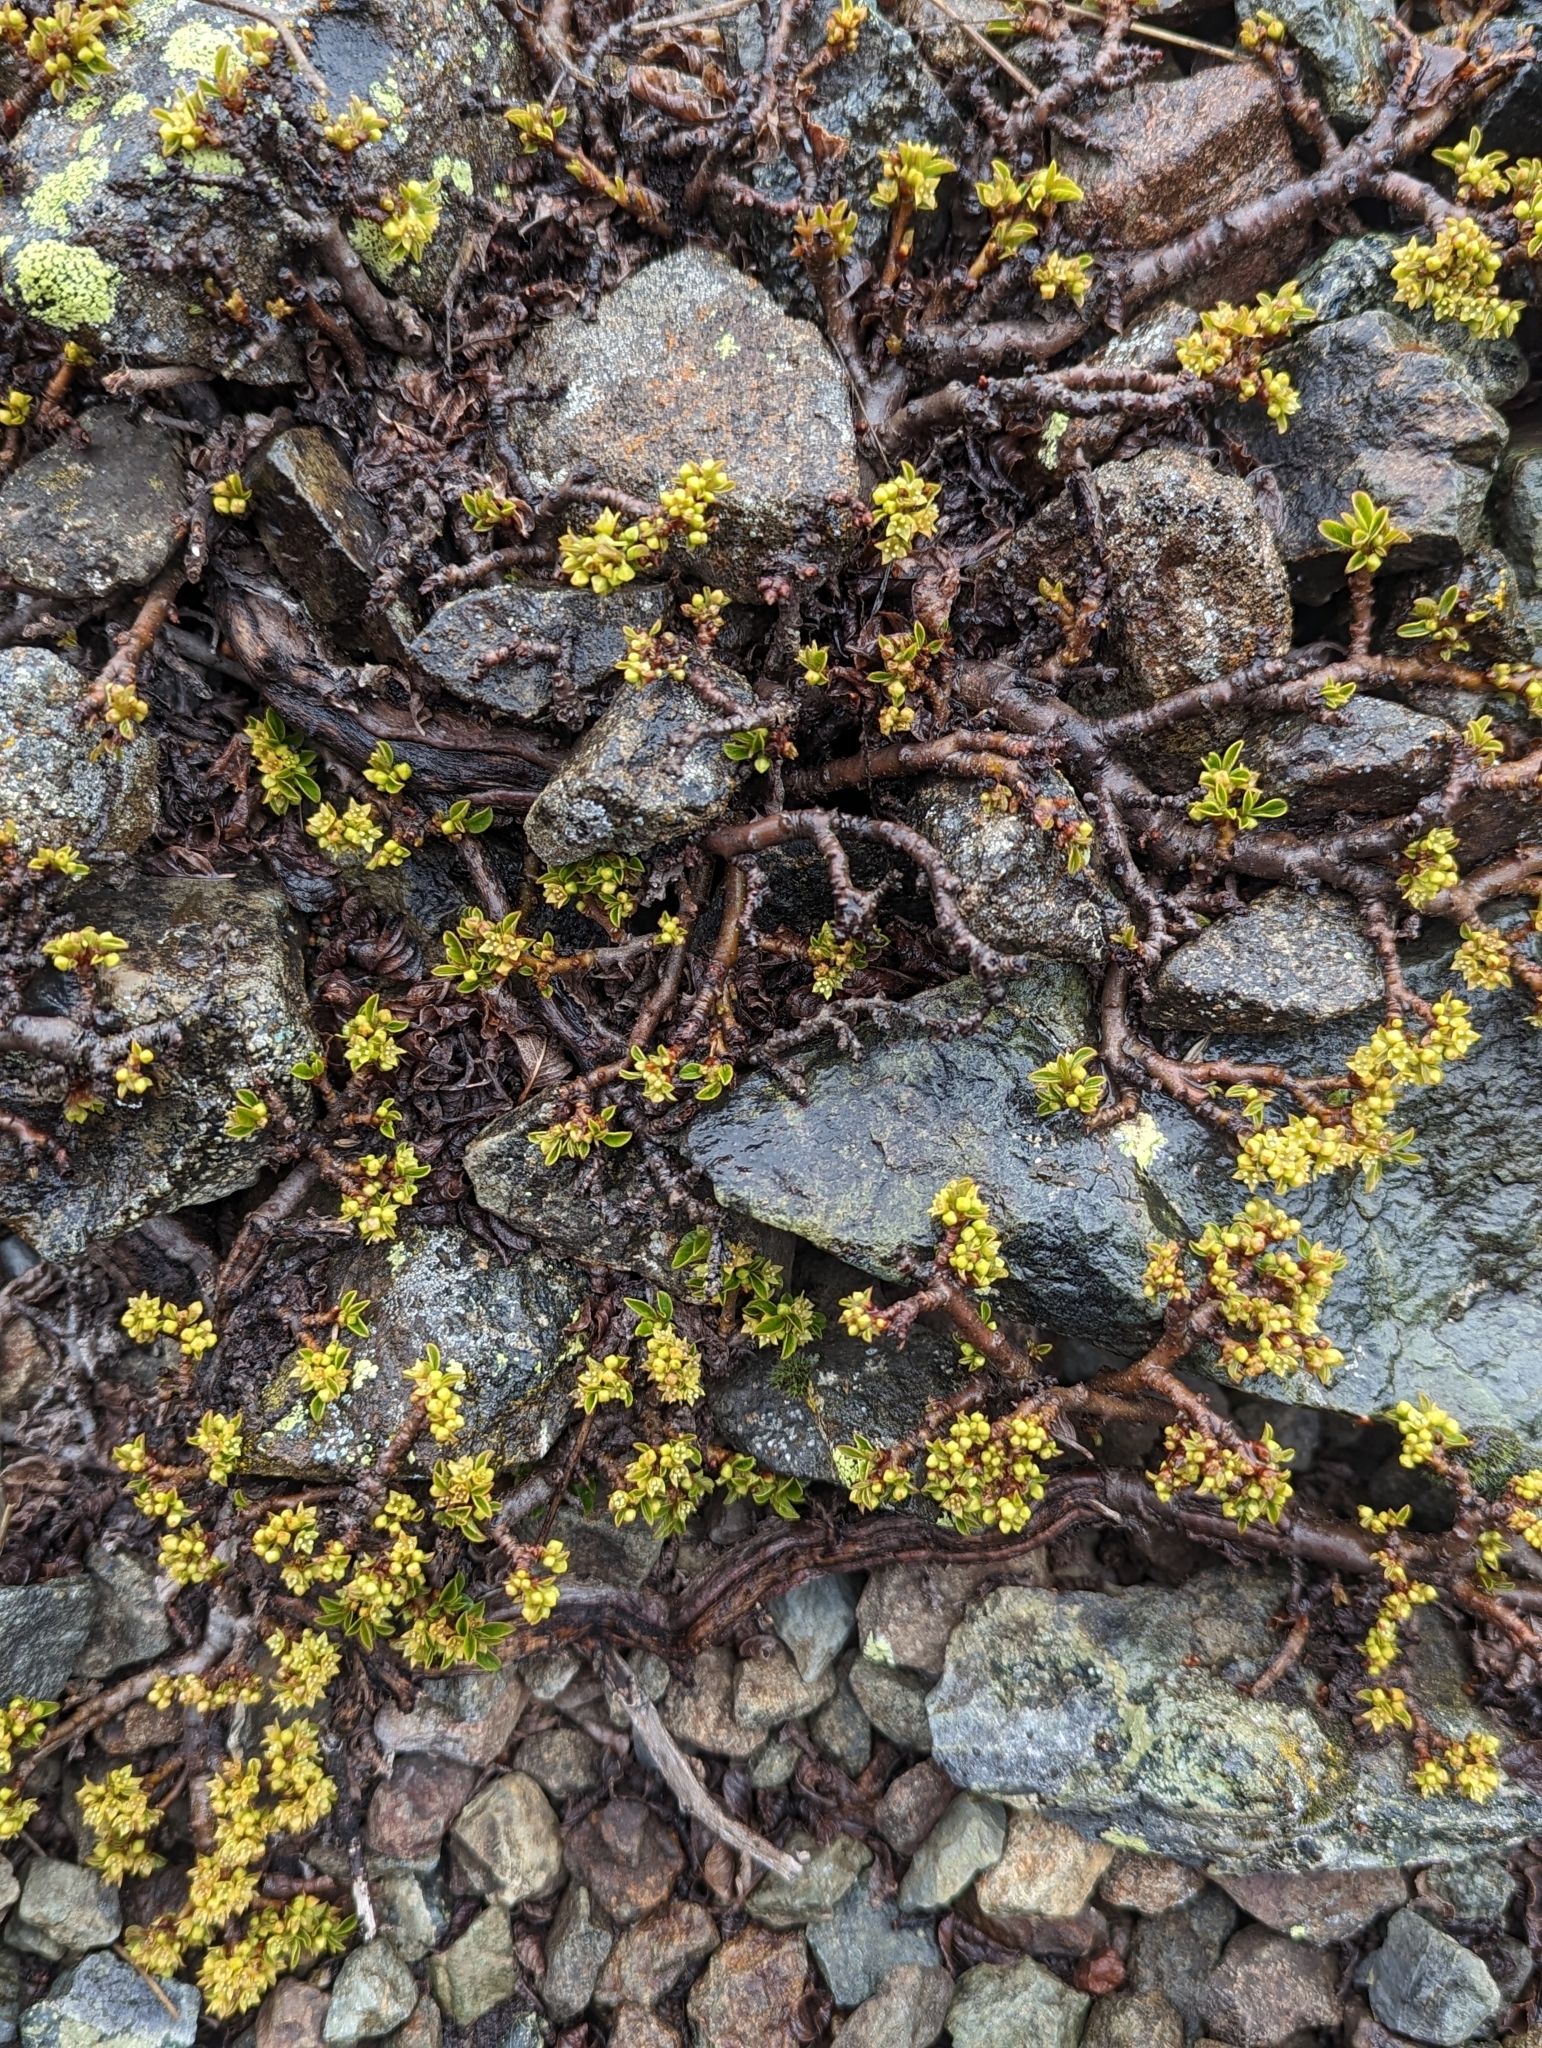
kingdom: Plantae
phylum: Tracheophyta
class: Magnoliopsida
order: Rosales
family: Rhamnaceae
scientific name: Rhamnaceae
